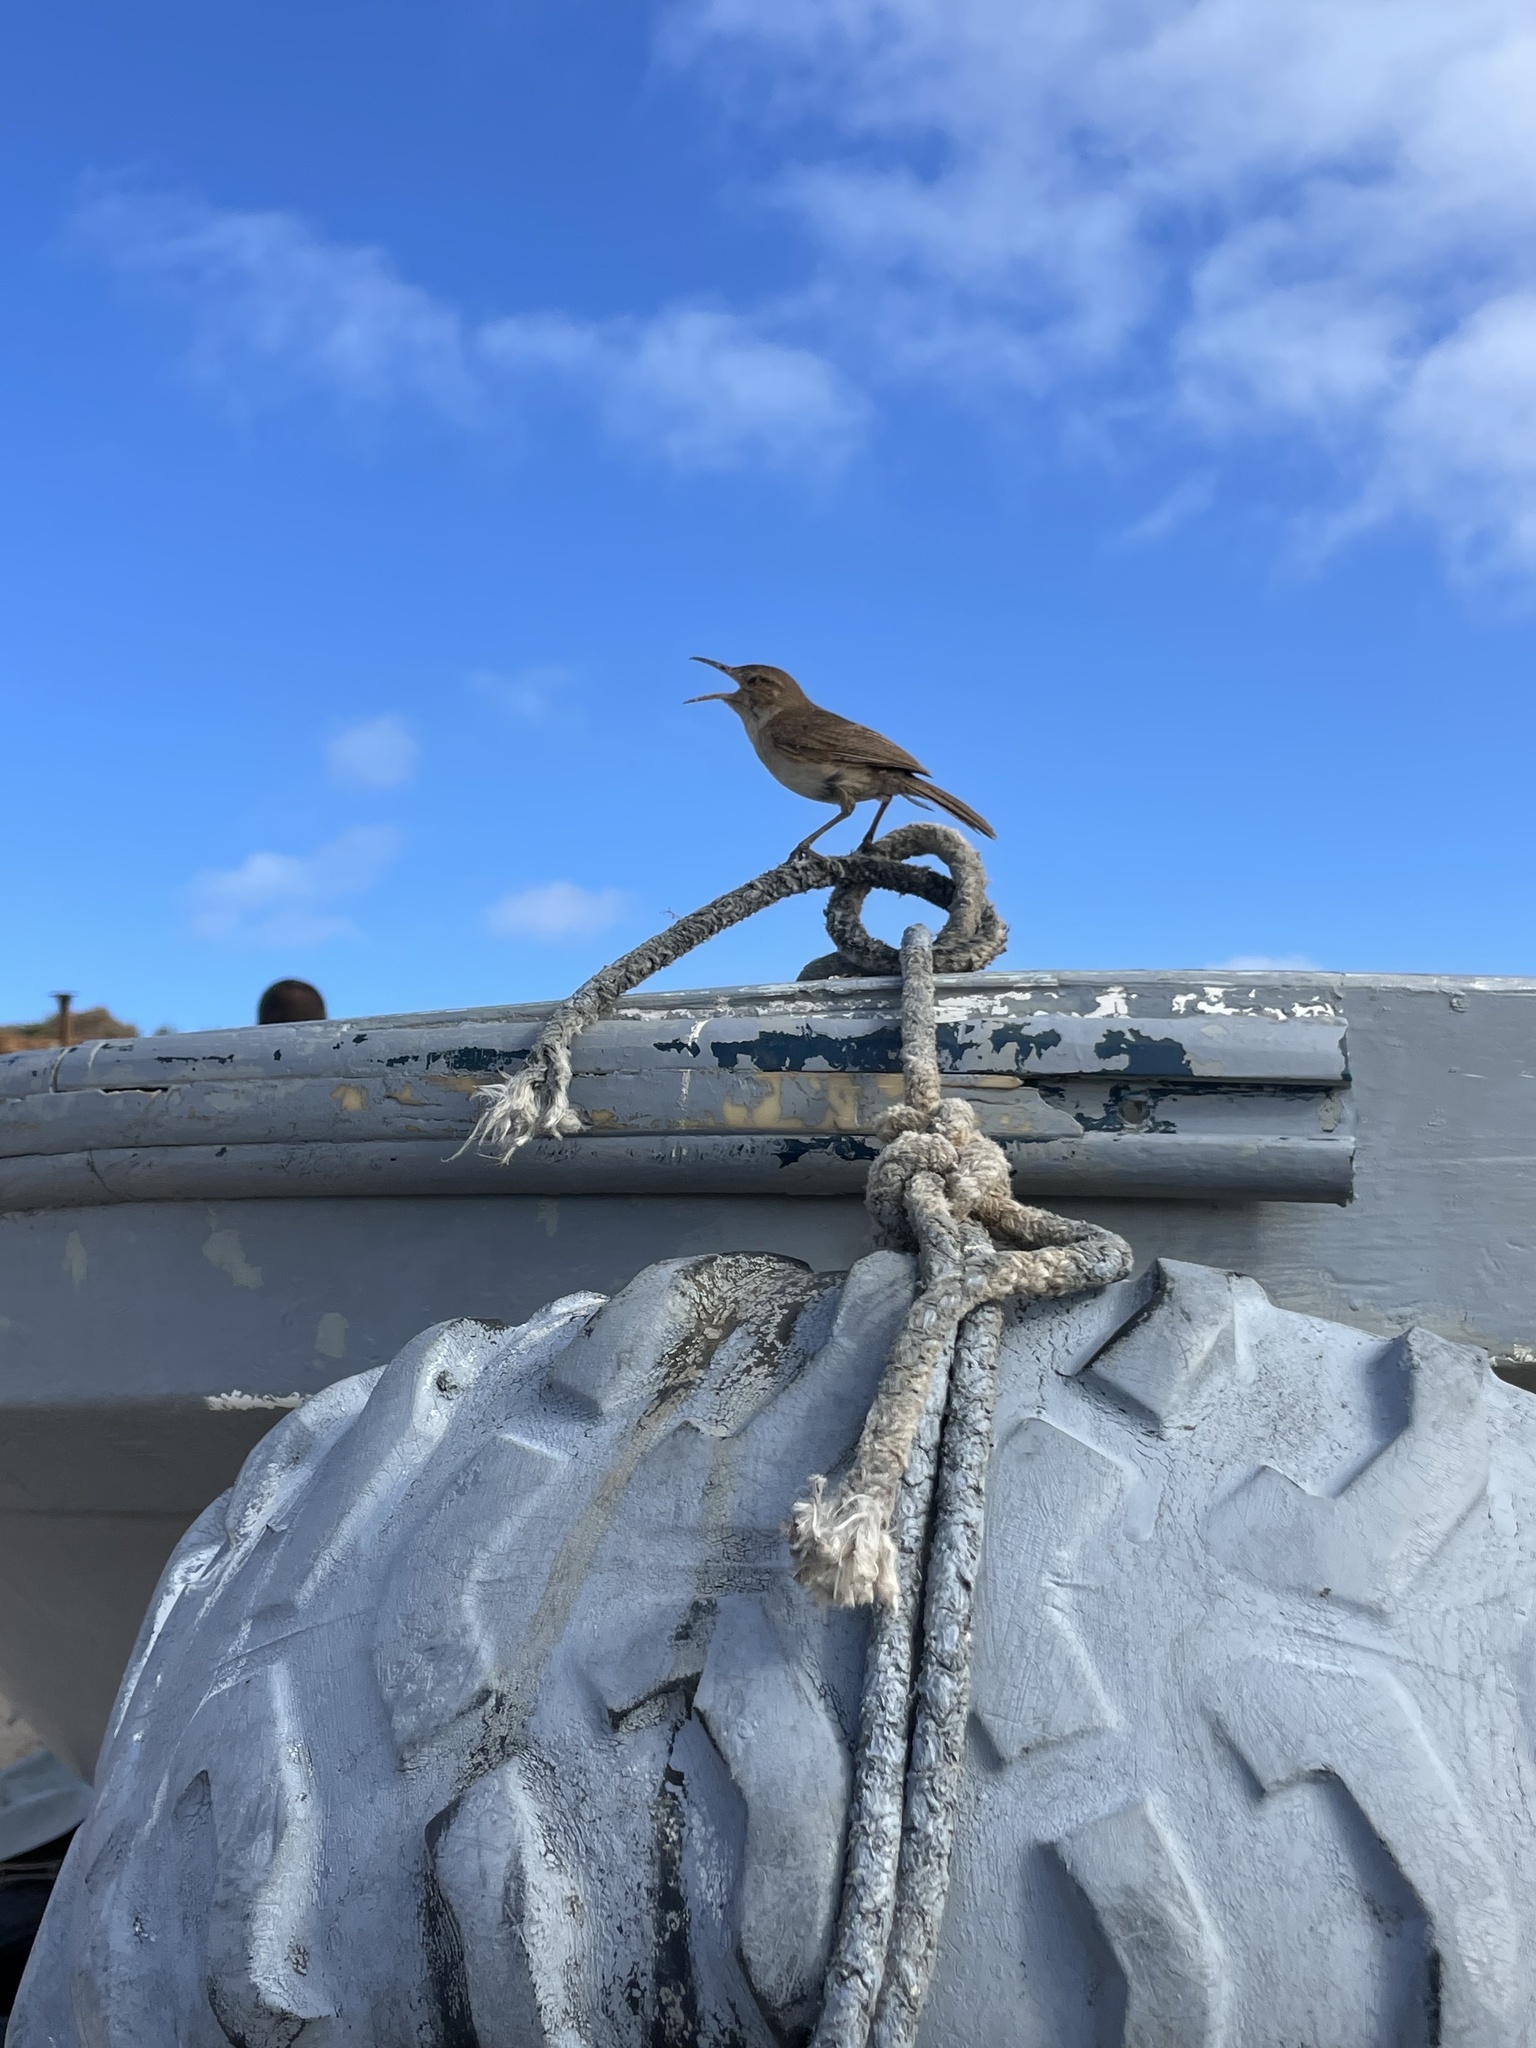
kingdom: Animalia
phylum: Chordata
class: Aves
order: Passeriformes
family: Troglodytidae
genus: Troglodytes
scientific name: Troglodytes tanneri
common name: Clarion wren
